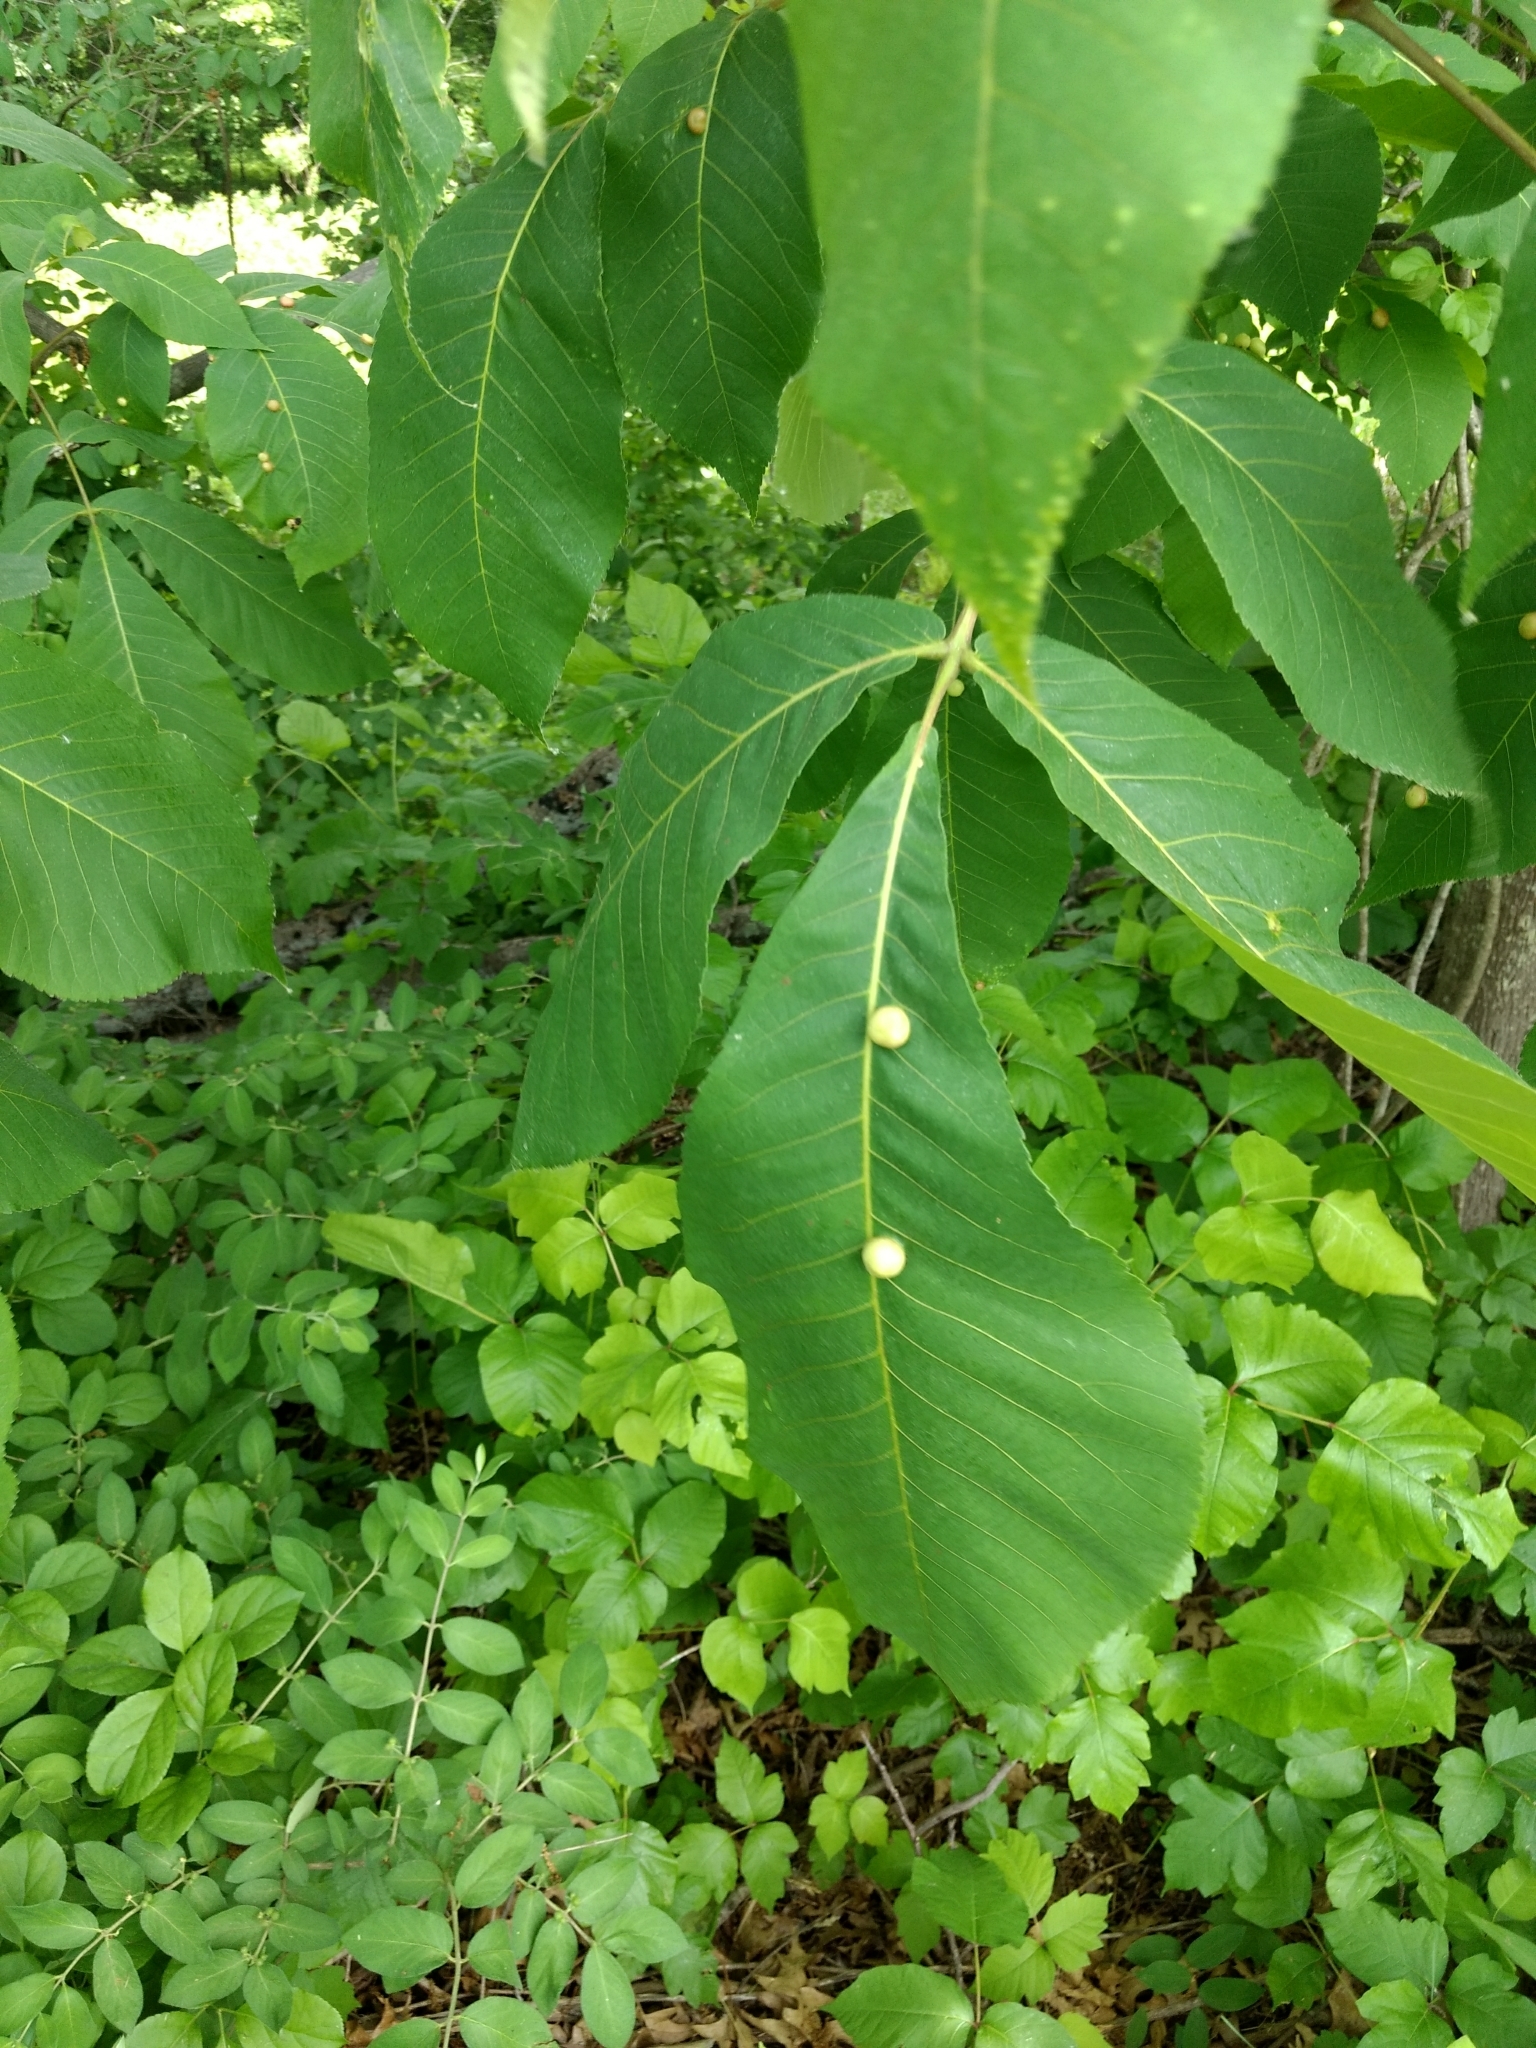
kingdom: Animalia
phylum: Arthropoda
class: Insecta
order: Hemiptera
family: Phylloxeridae
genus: Phylloxera
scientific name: Phylloxera caryae-globuli
